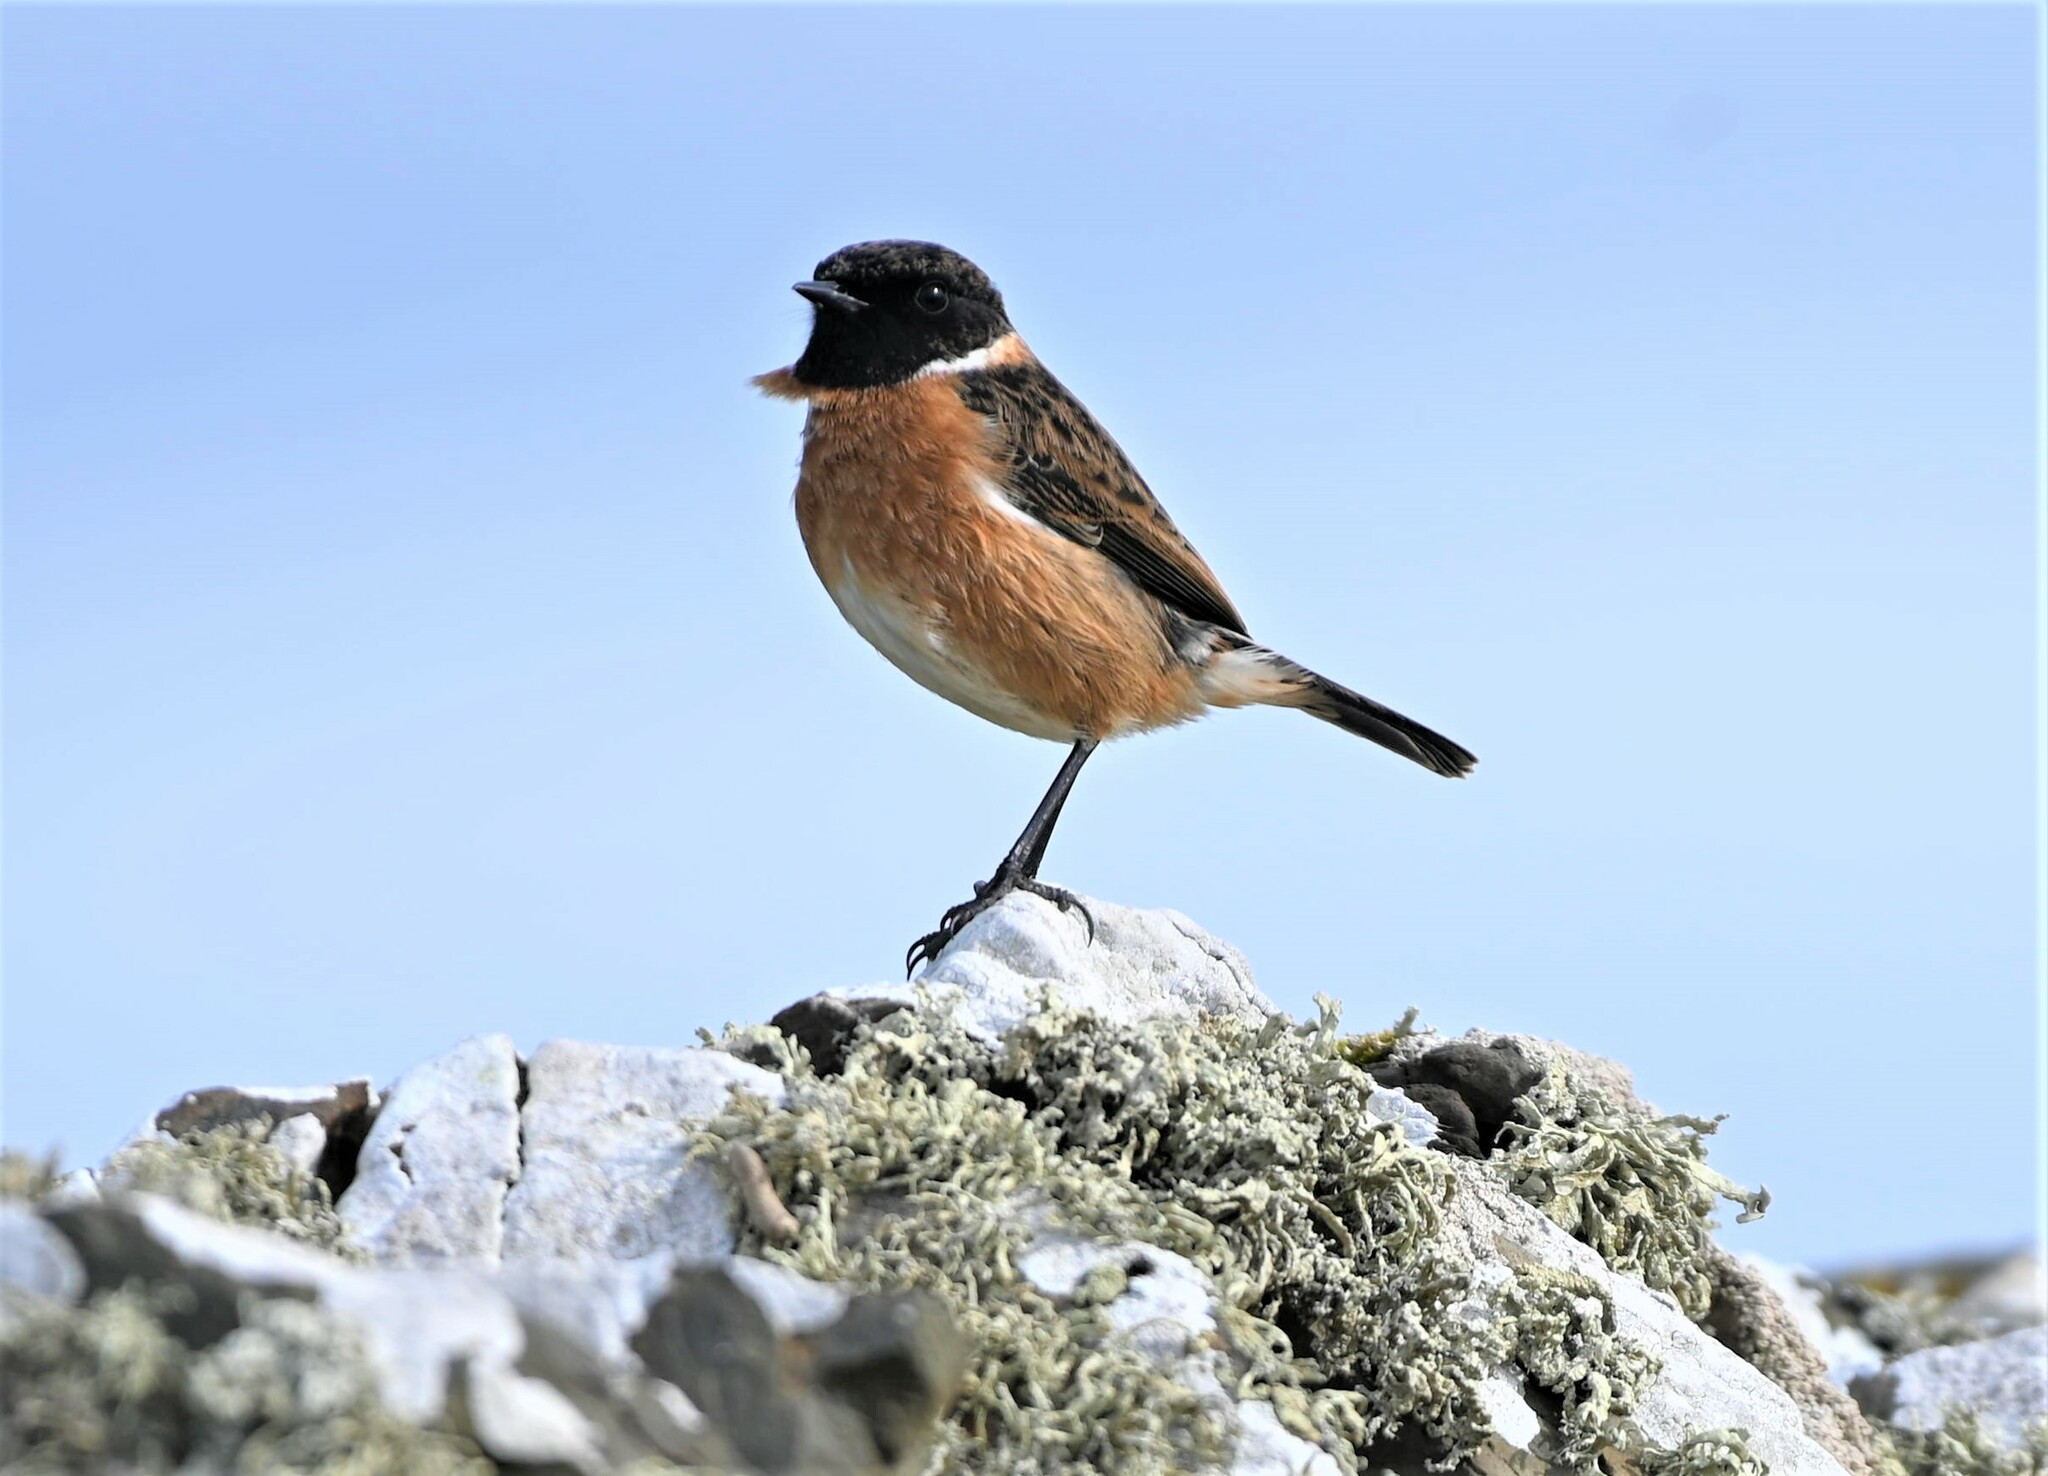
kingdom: Animalia
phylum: Chordata
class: Aves
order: Passeriformes
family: Muscicapidae
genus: Saxicola
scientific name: Saxicola rubicola
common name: European stonechat
